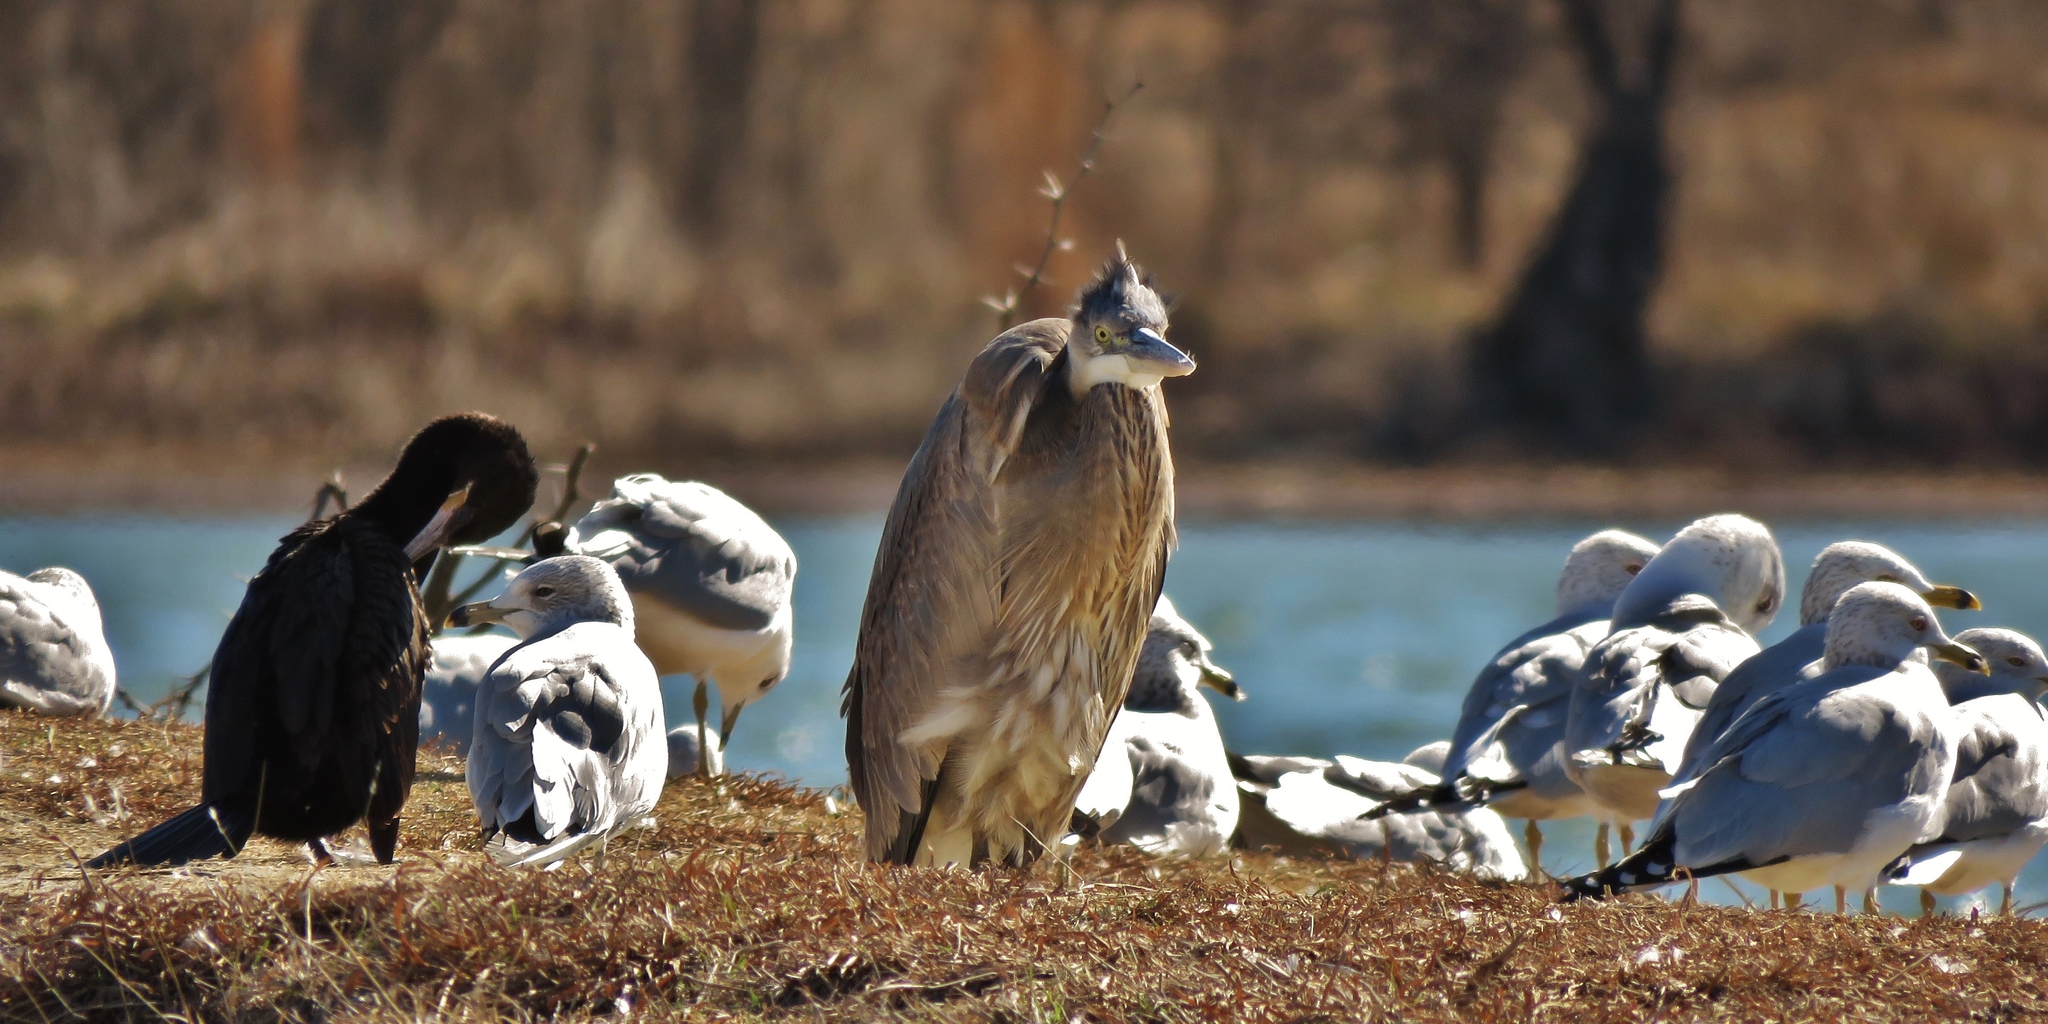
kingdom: Animalia
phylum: Chordata
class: Aves
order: Pelecaniformes
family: Ardeidae
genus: Ardea
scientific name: Ardea herodias
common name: Great blue heron
